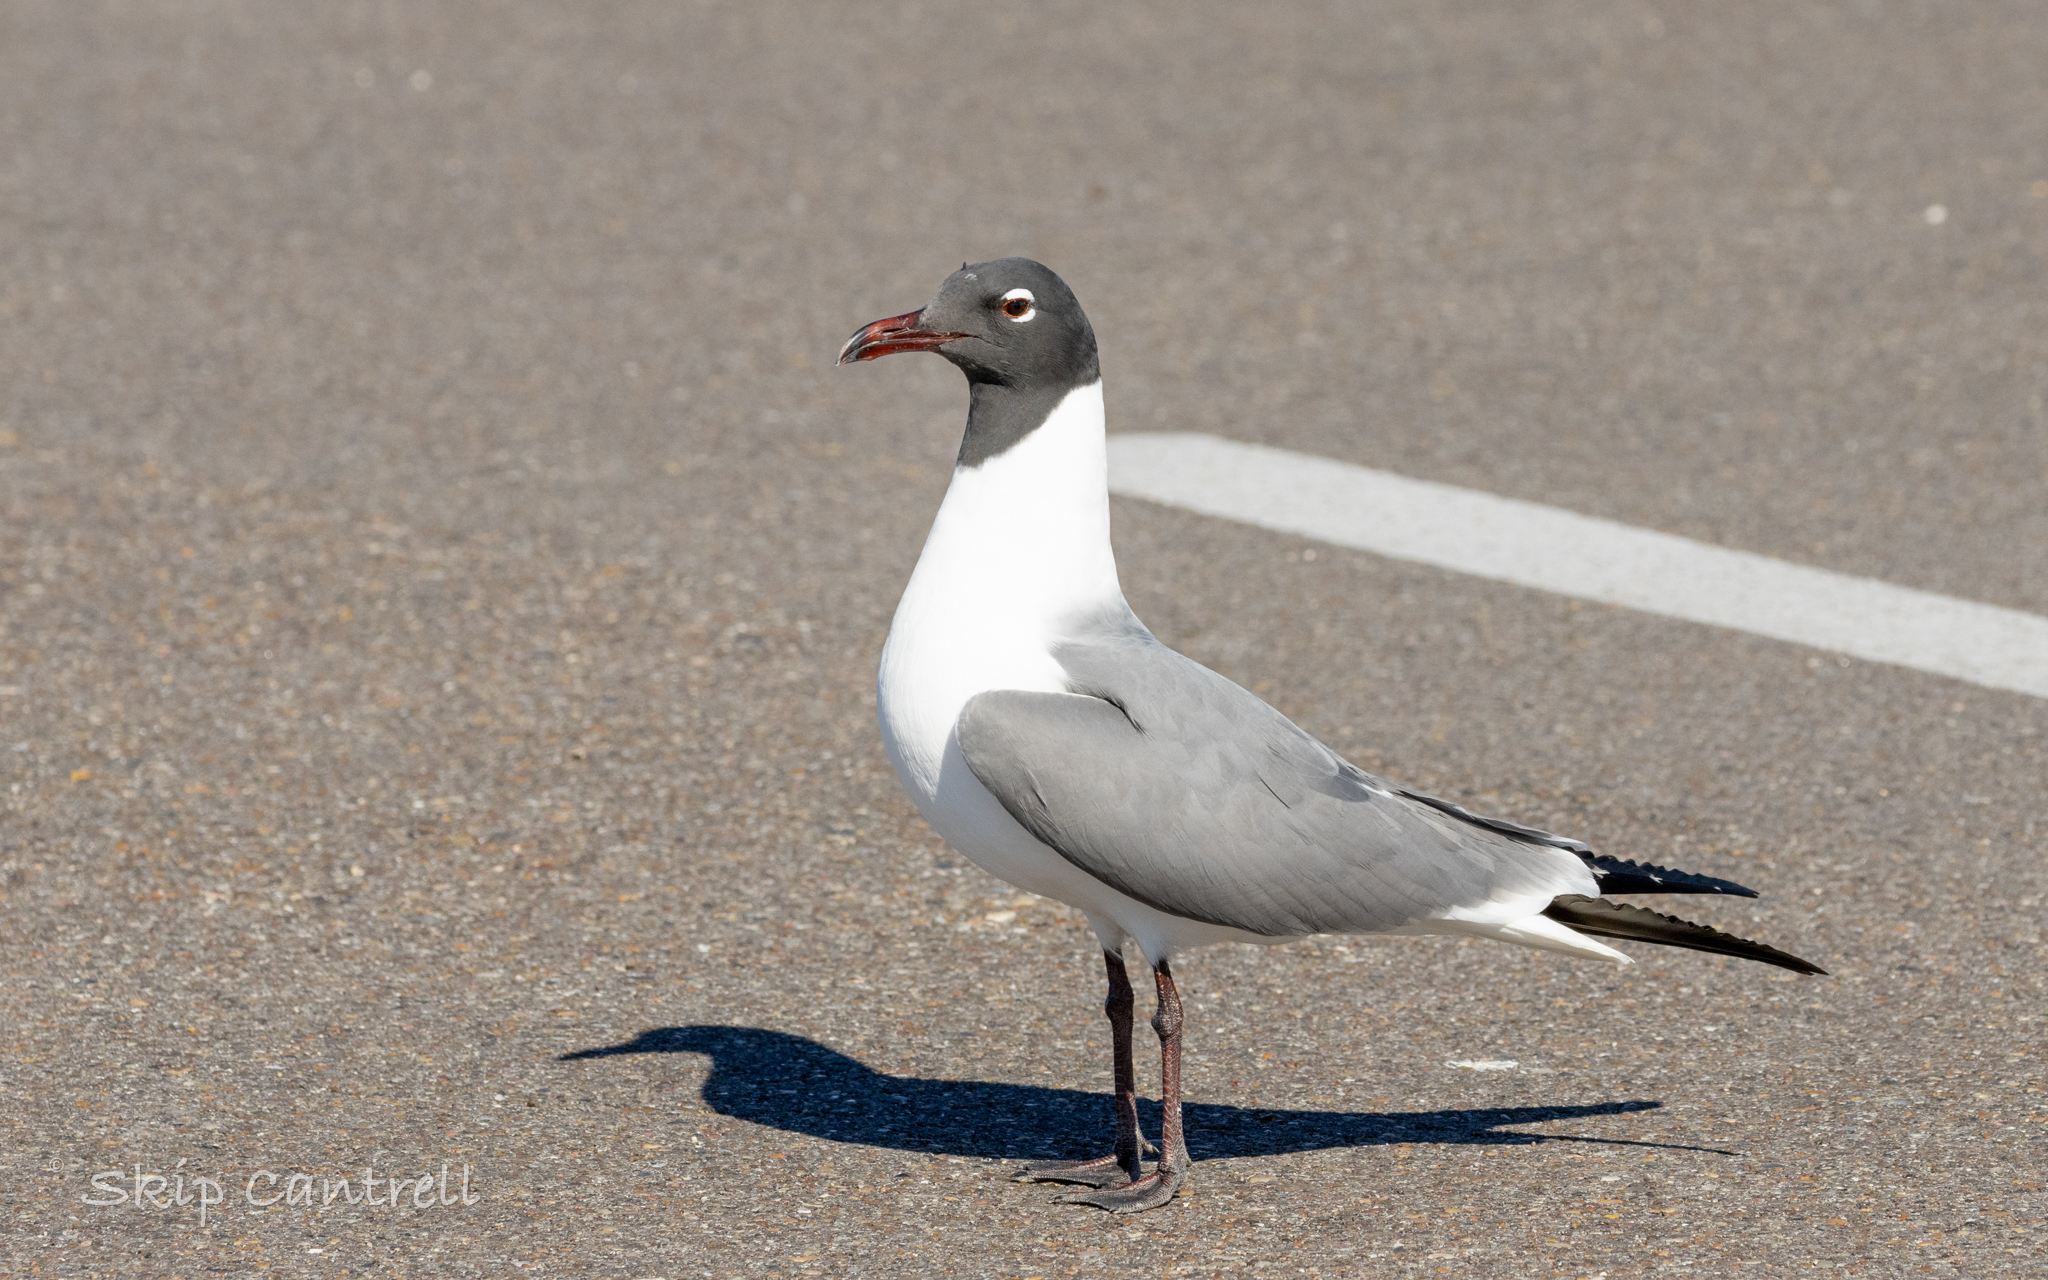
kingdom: Animalia
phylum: Chordata
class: Aves
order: Charadriiformes
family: Laridae
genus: Leucophaeus
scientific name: Leucophaeus atricilla
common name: Laughing gull
